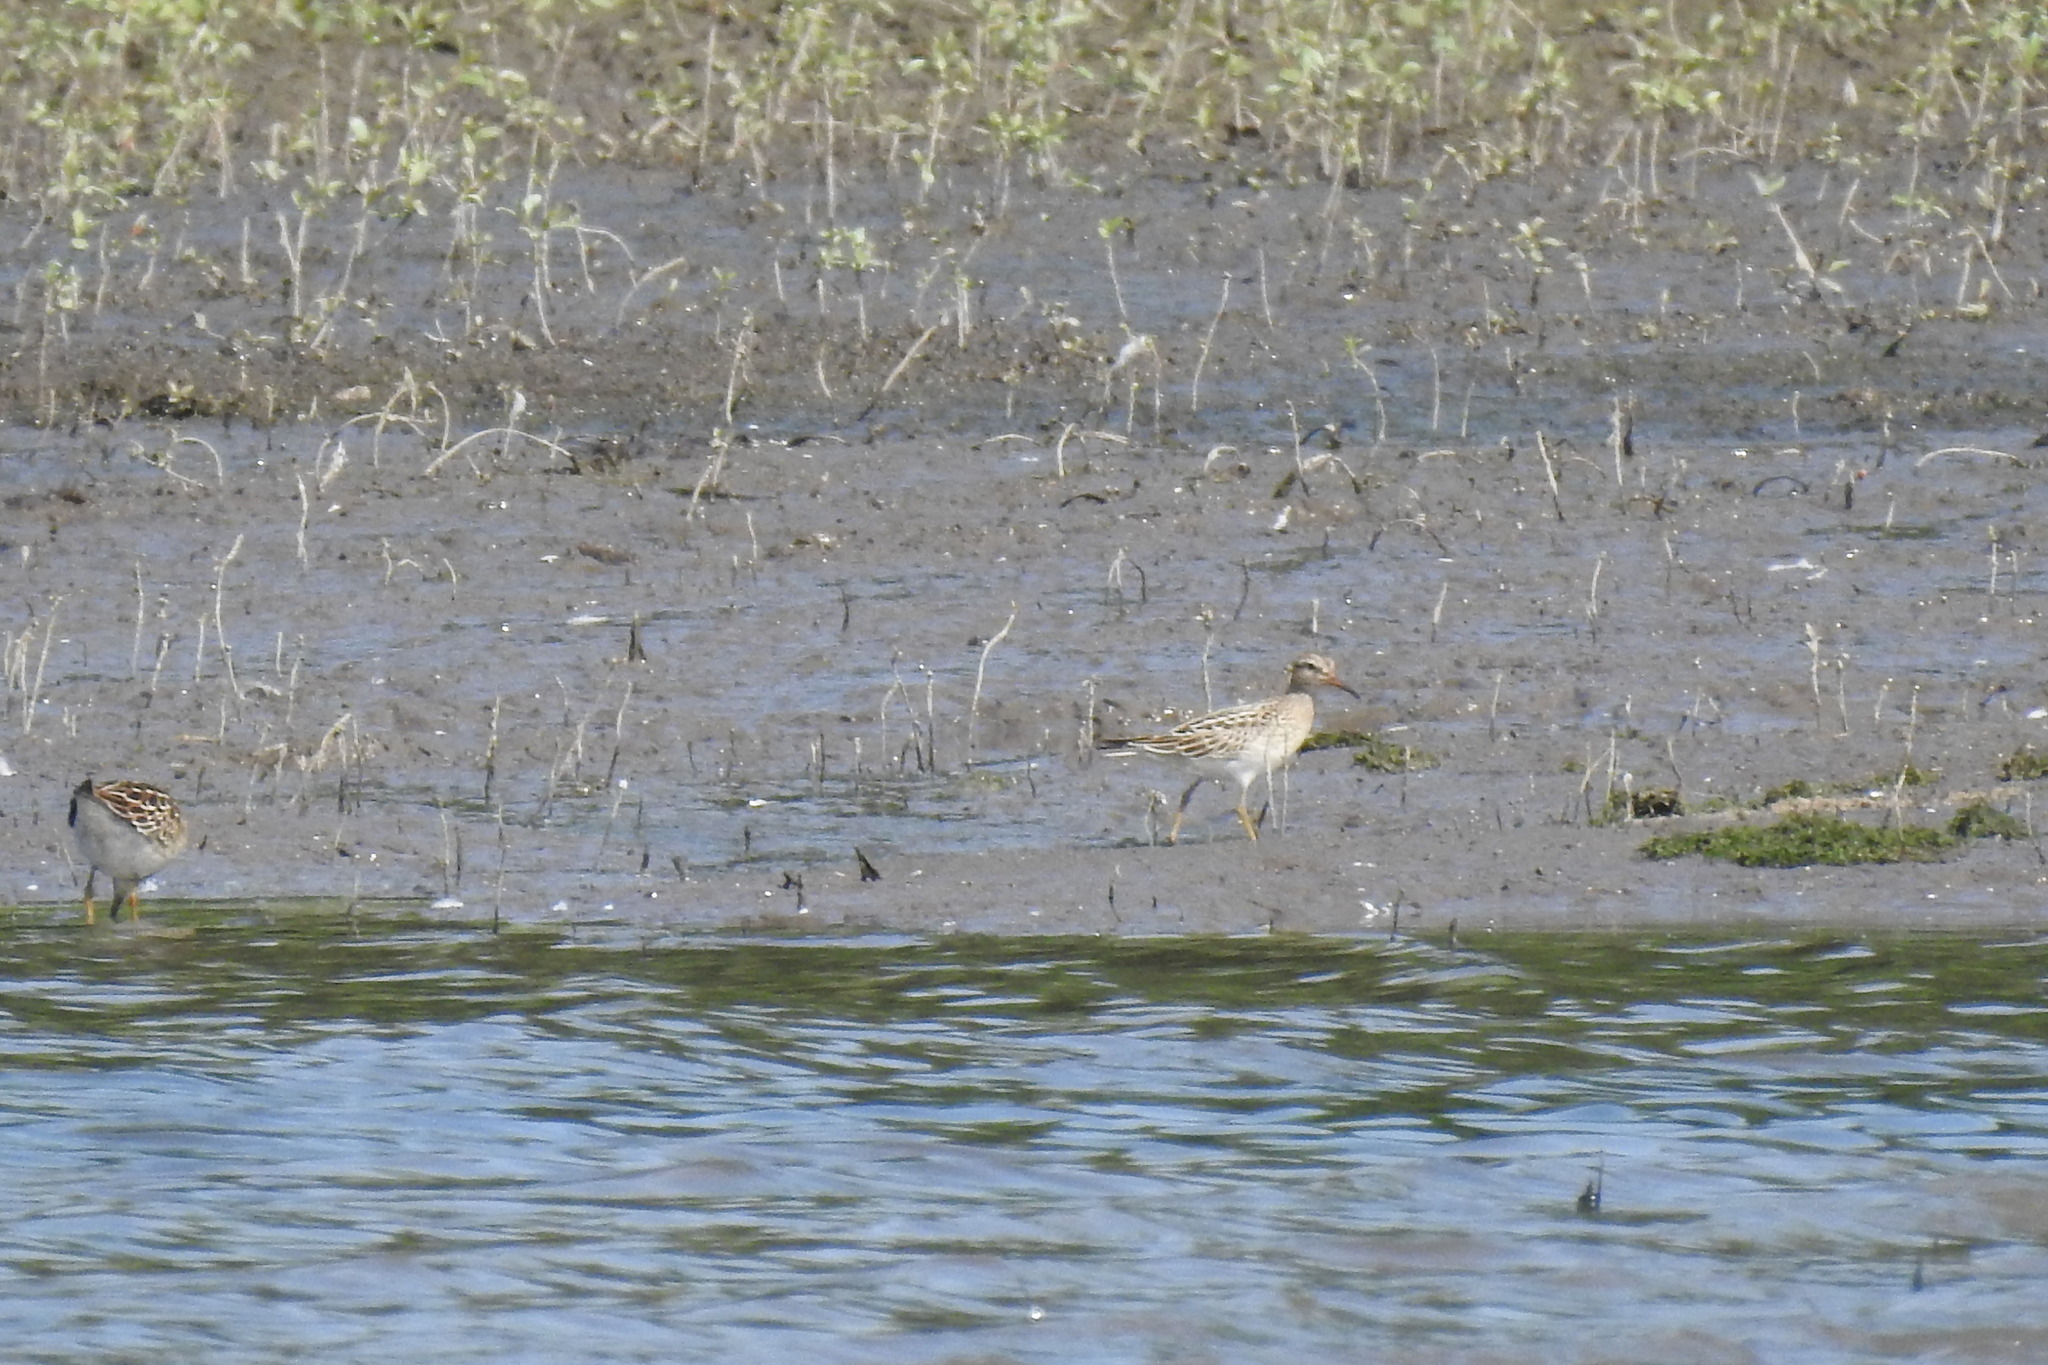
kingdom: Animalia
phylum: Chordata
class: Aves
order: Charadriiformes
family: Scolopacidae
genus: Calidris
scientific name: Calidris melanotos
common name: Pectoral sandpiper
